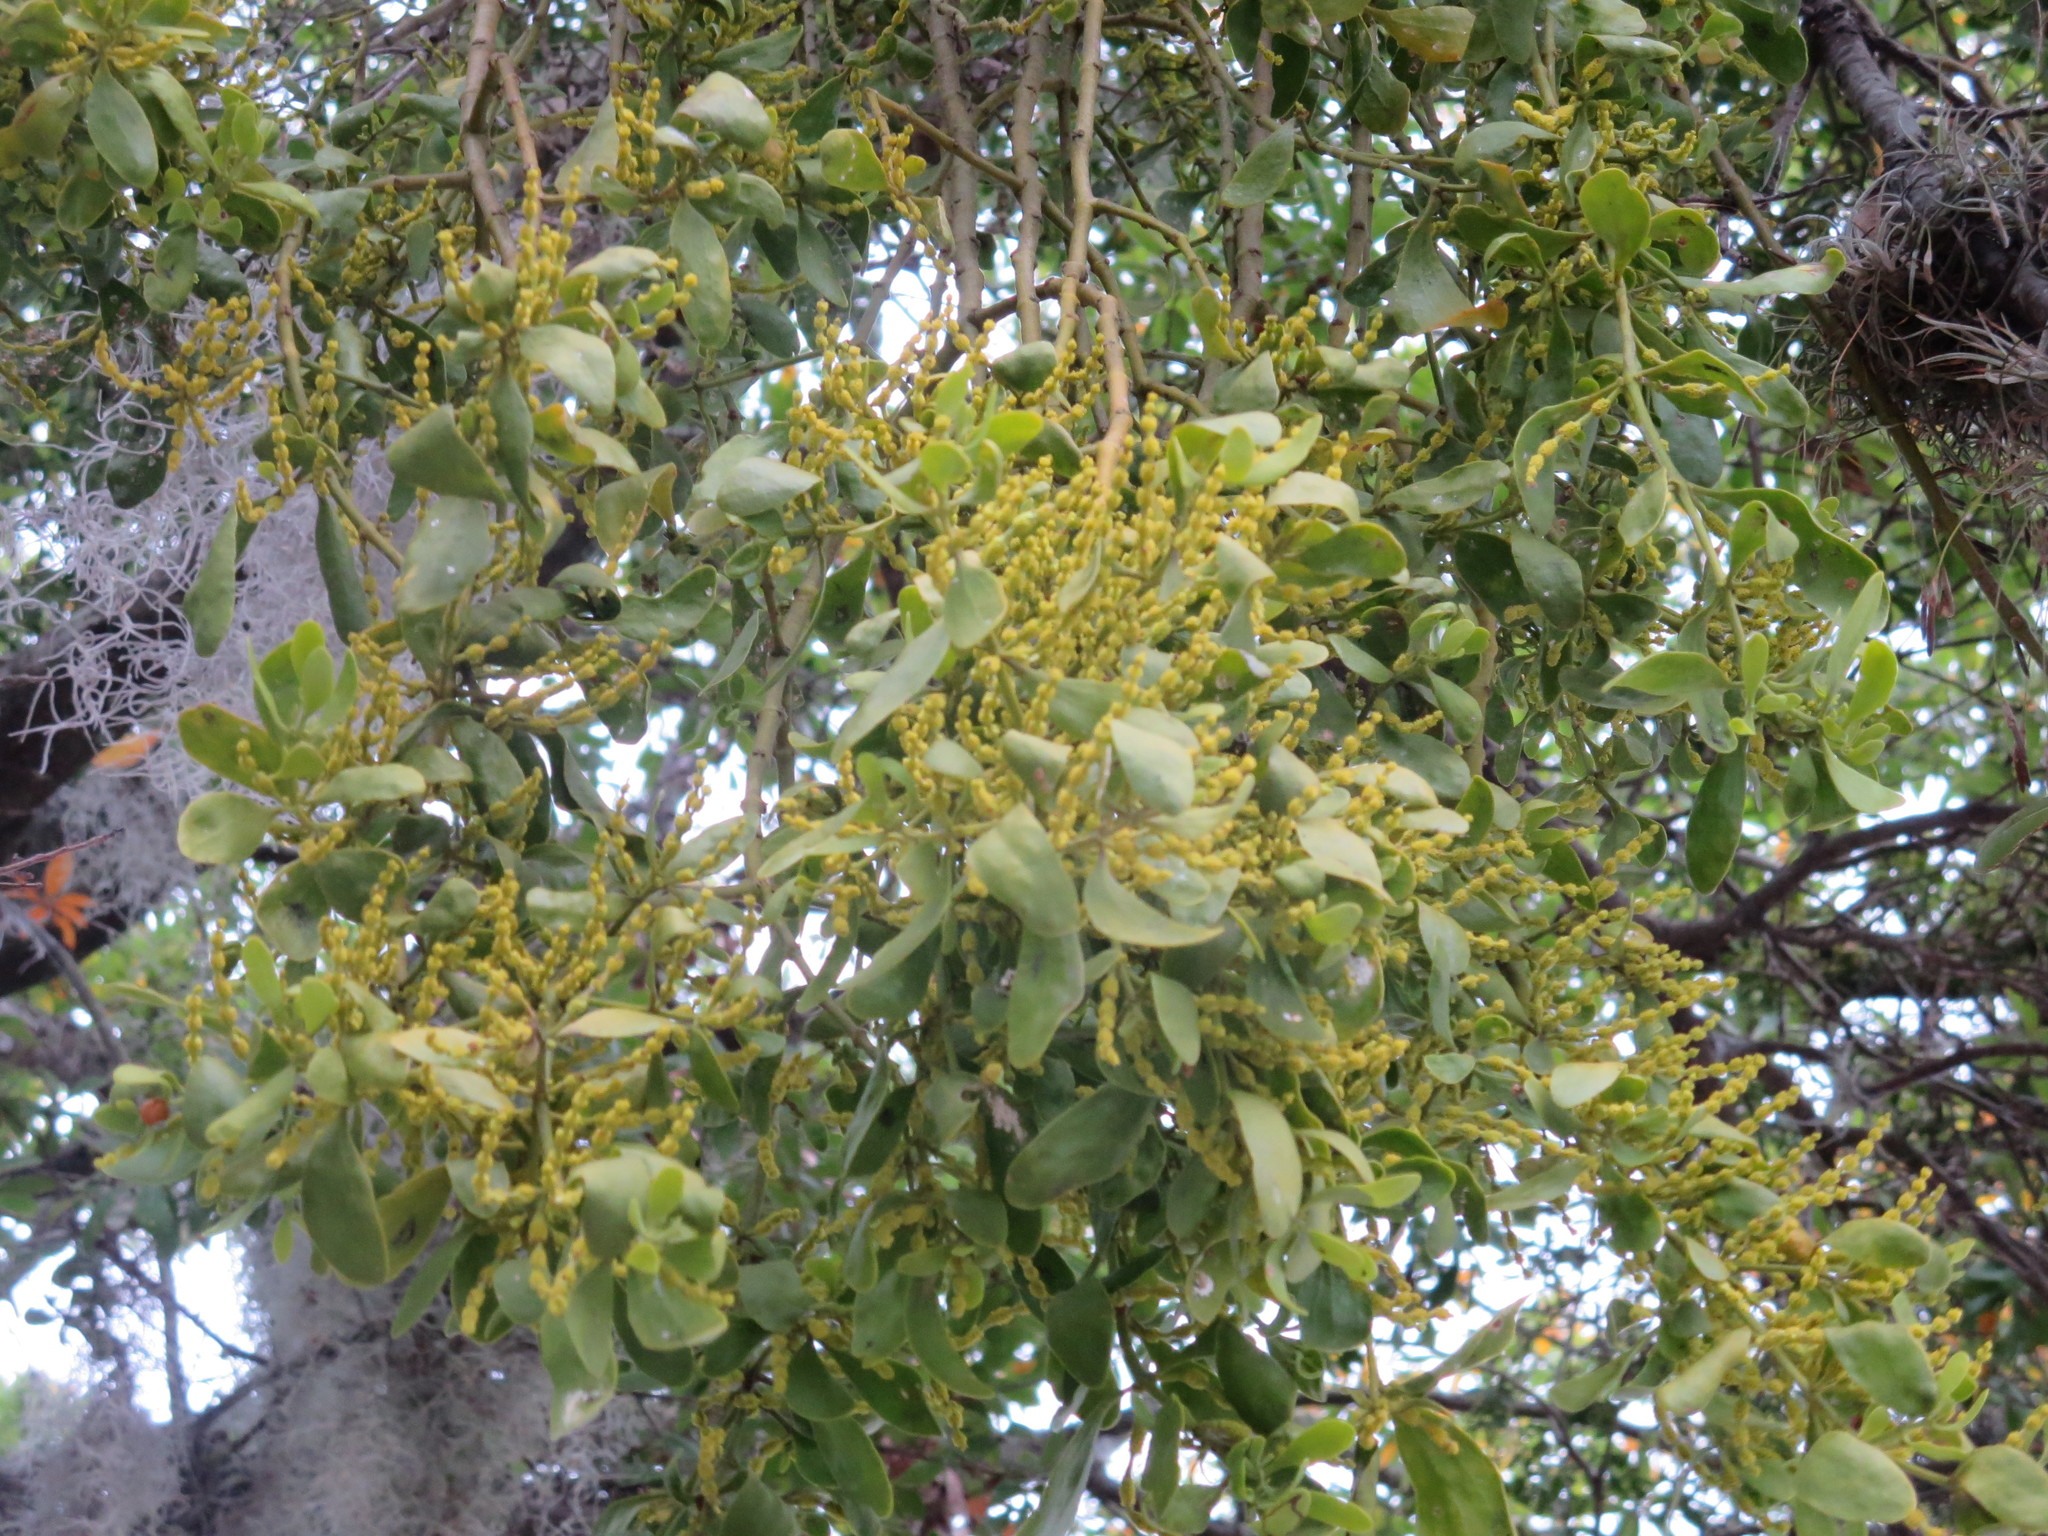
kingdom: Plantae
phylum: Tracheophyta
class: Magnoliopsida
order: Santalales
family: Viscaceae
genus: Phoradendron
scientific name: Phoradendron leucarpum
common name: Pacific mistletoe
